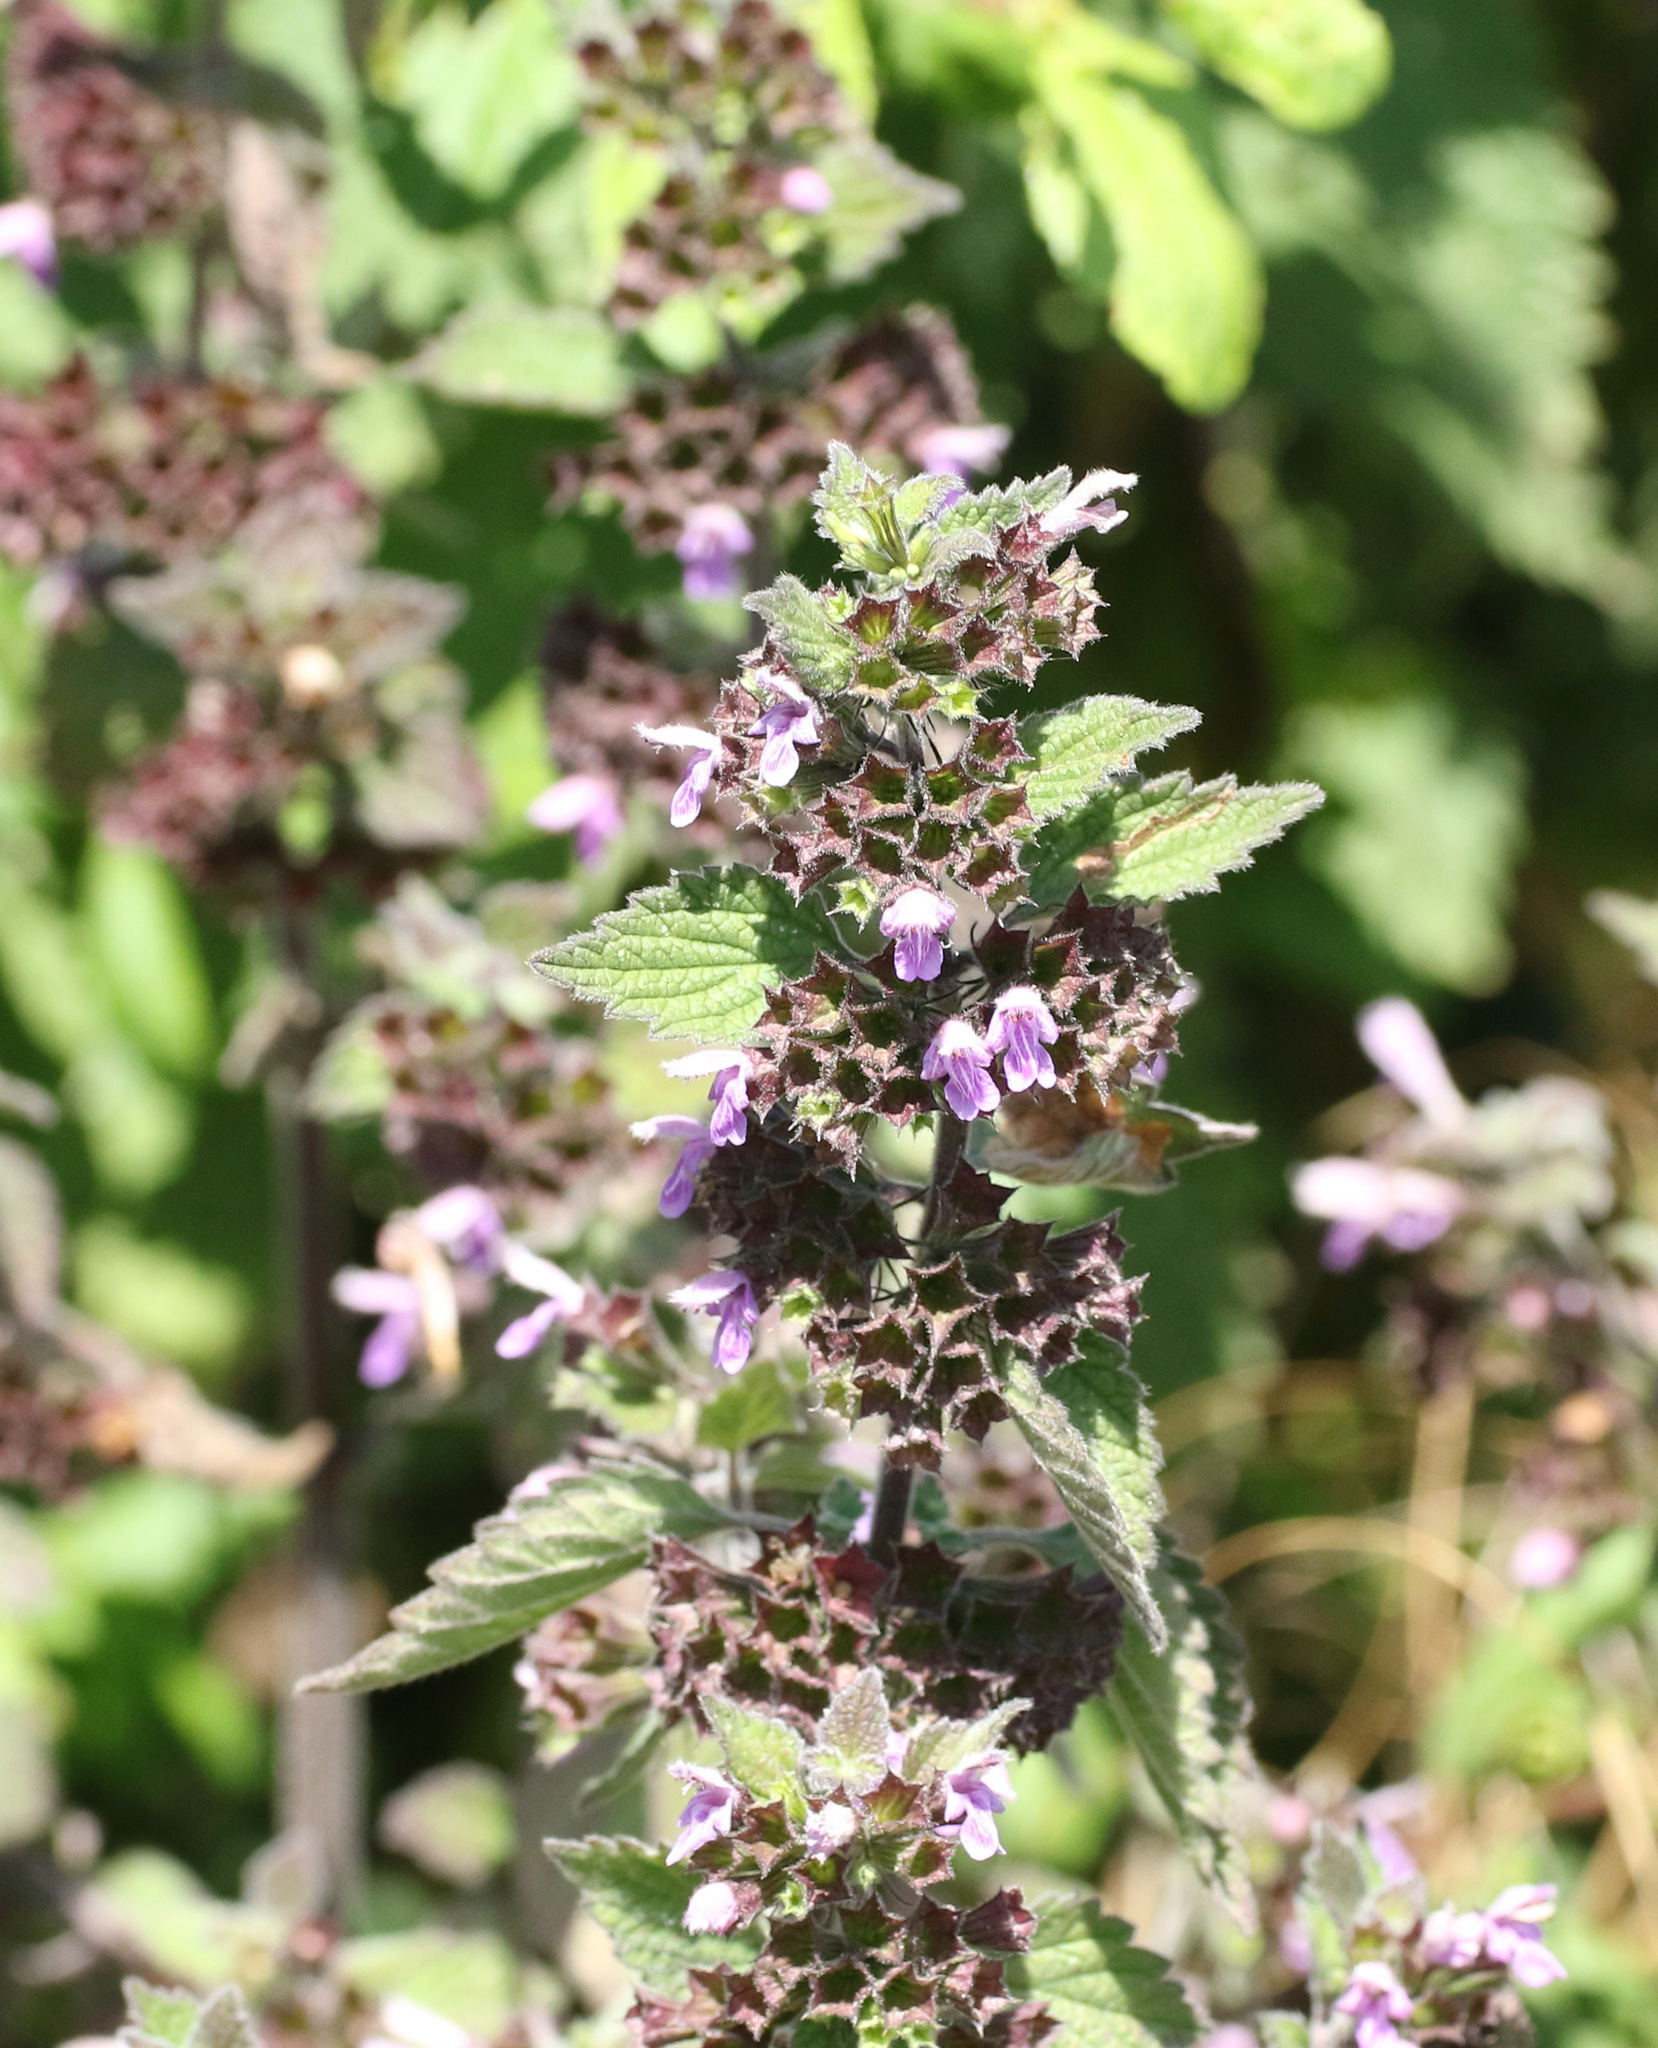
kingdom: Plantae
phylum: Tracheophyta
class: Magnoliopsida
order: Lamiales
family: Lamiaceae
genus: Ballota
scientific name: Ballota nigra
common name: Black horehound
